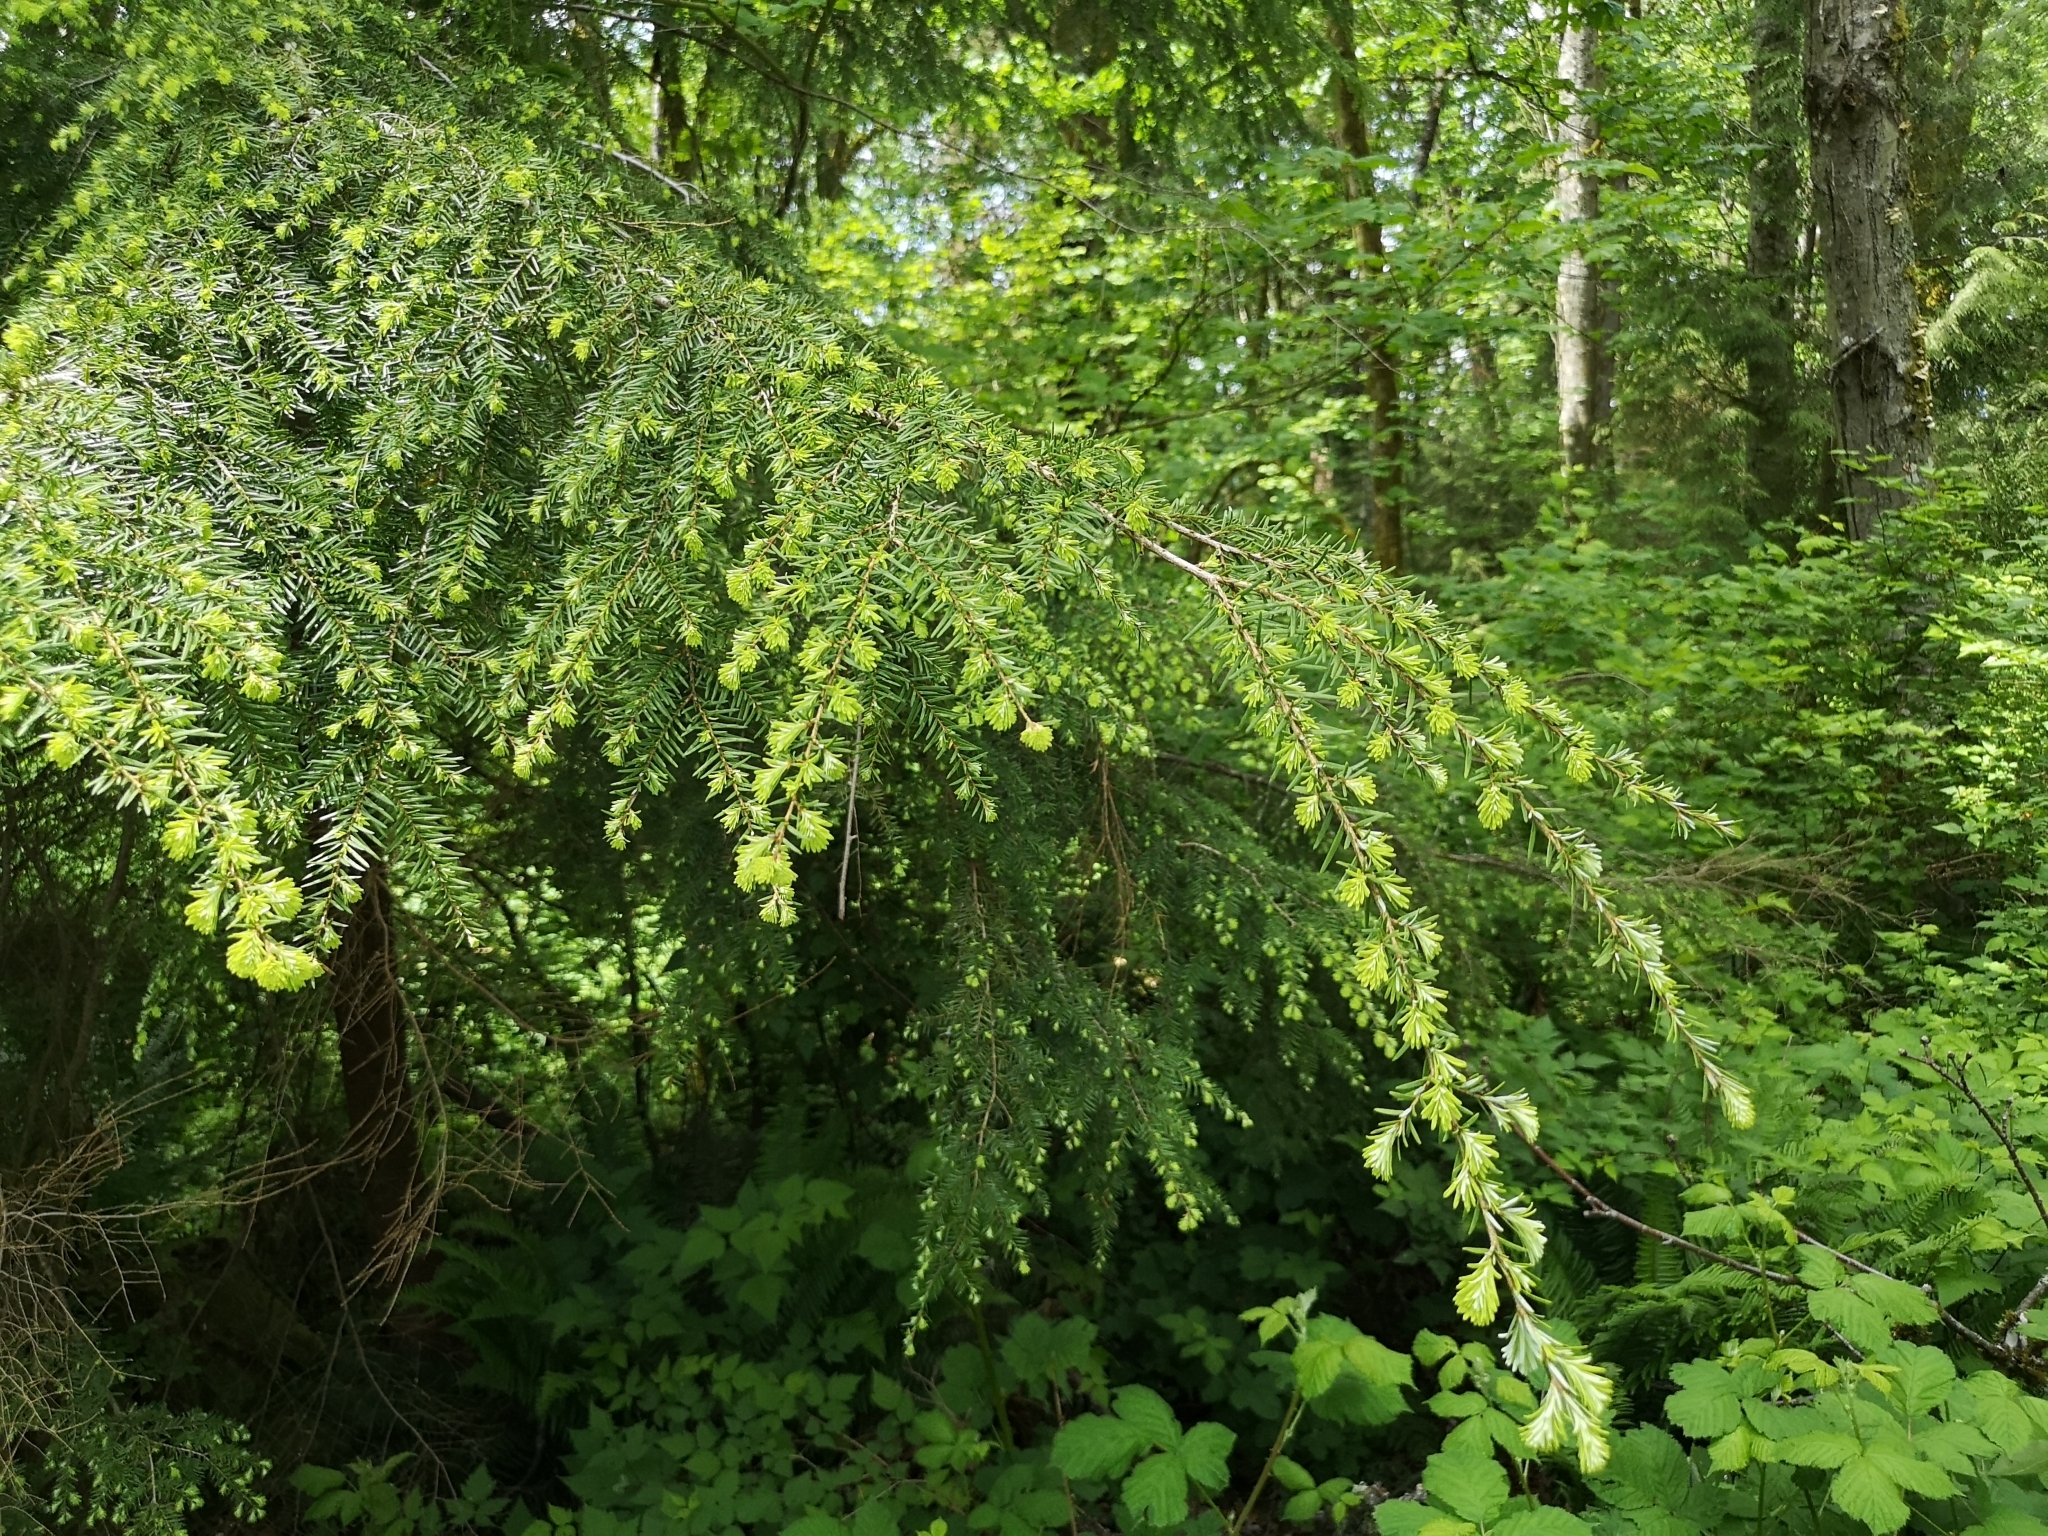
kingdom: Plantae
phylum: Tracheophyta
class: Pinopsida
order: Pinales
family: Pinaceae
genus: Tsuga
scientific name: Tsuga heterophylla
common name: Western hemlock
